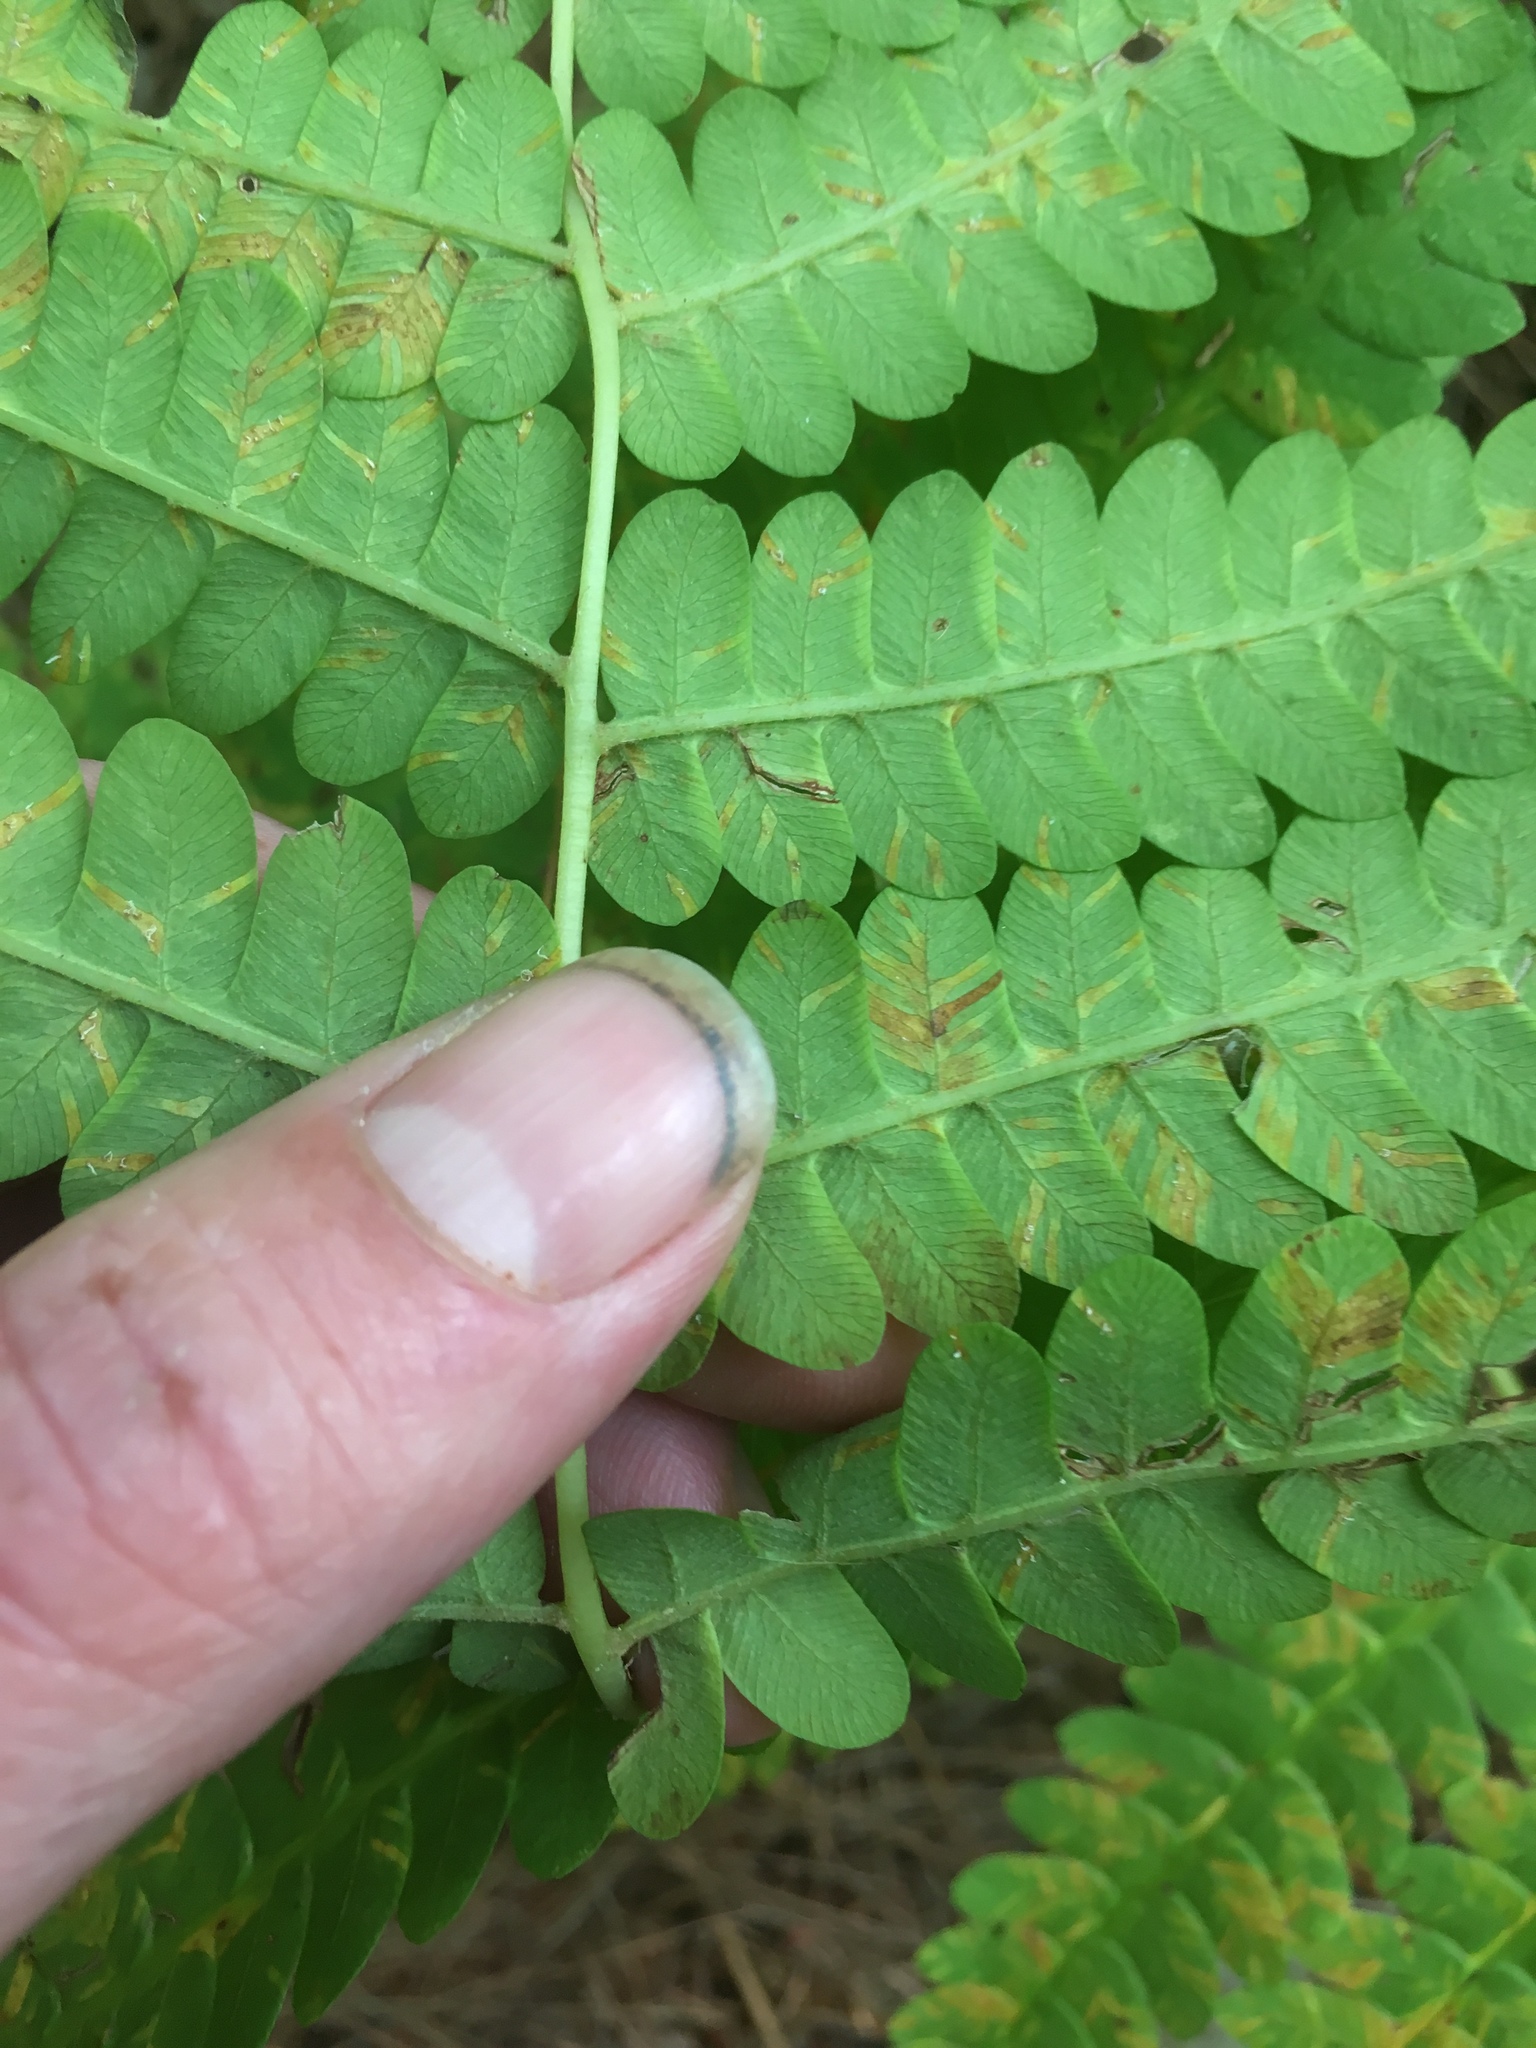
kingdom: Plantae
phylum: Tracheophyta
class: Polypodiopsida
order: Osmundales
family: Osmundaceae
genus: Claytosmunda
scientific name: Claytosmunda claytoniana
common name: Clayton's fern
